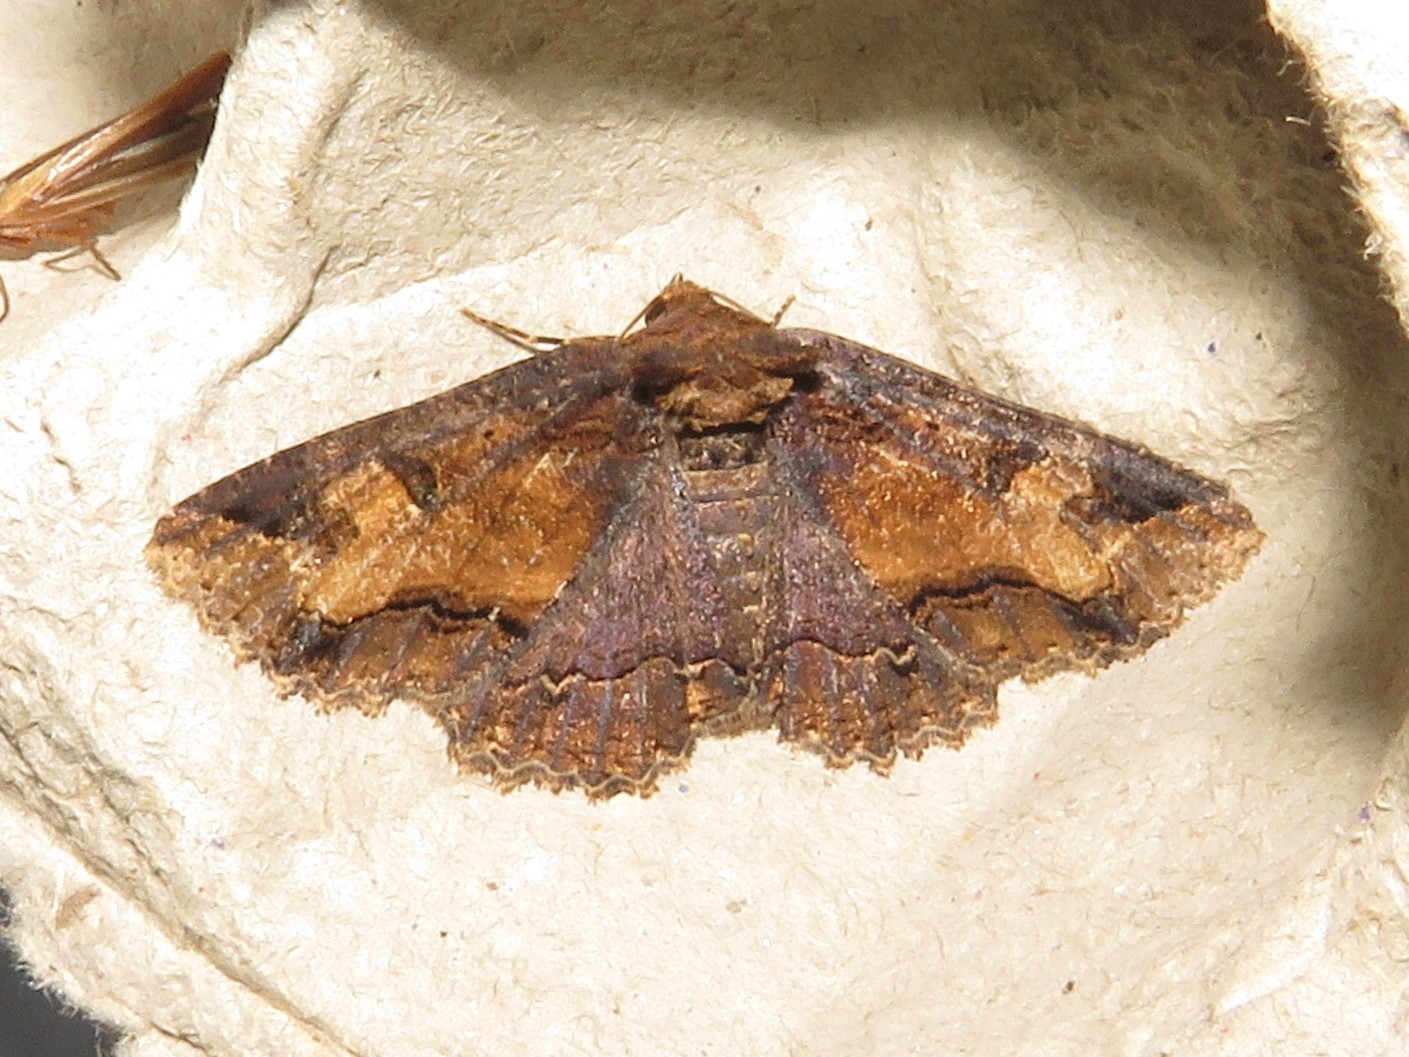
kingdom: Animalia
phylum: Arthropoda
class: Insecta
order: Lepidoptera
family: Erebidae
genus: Zale
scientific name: Zale minerea
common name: Colorful zale moth
